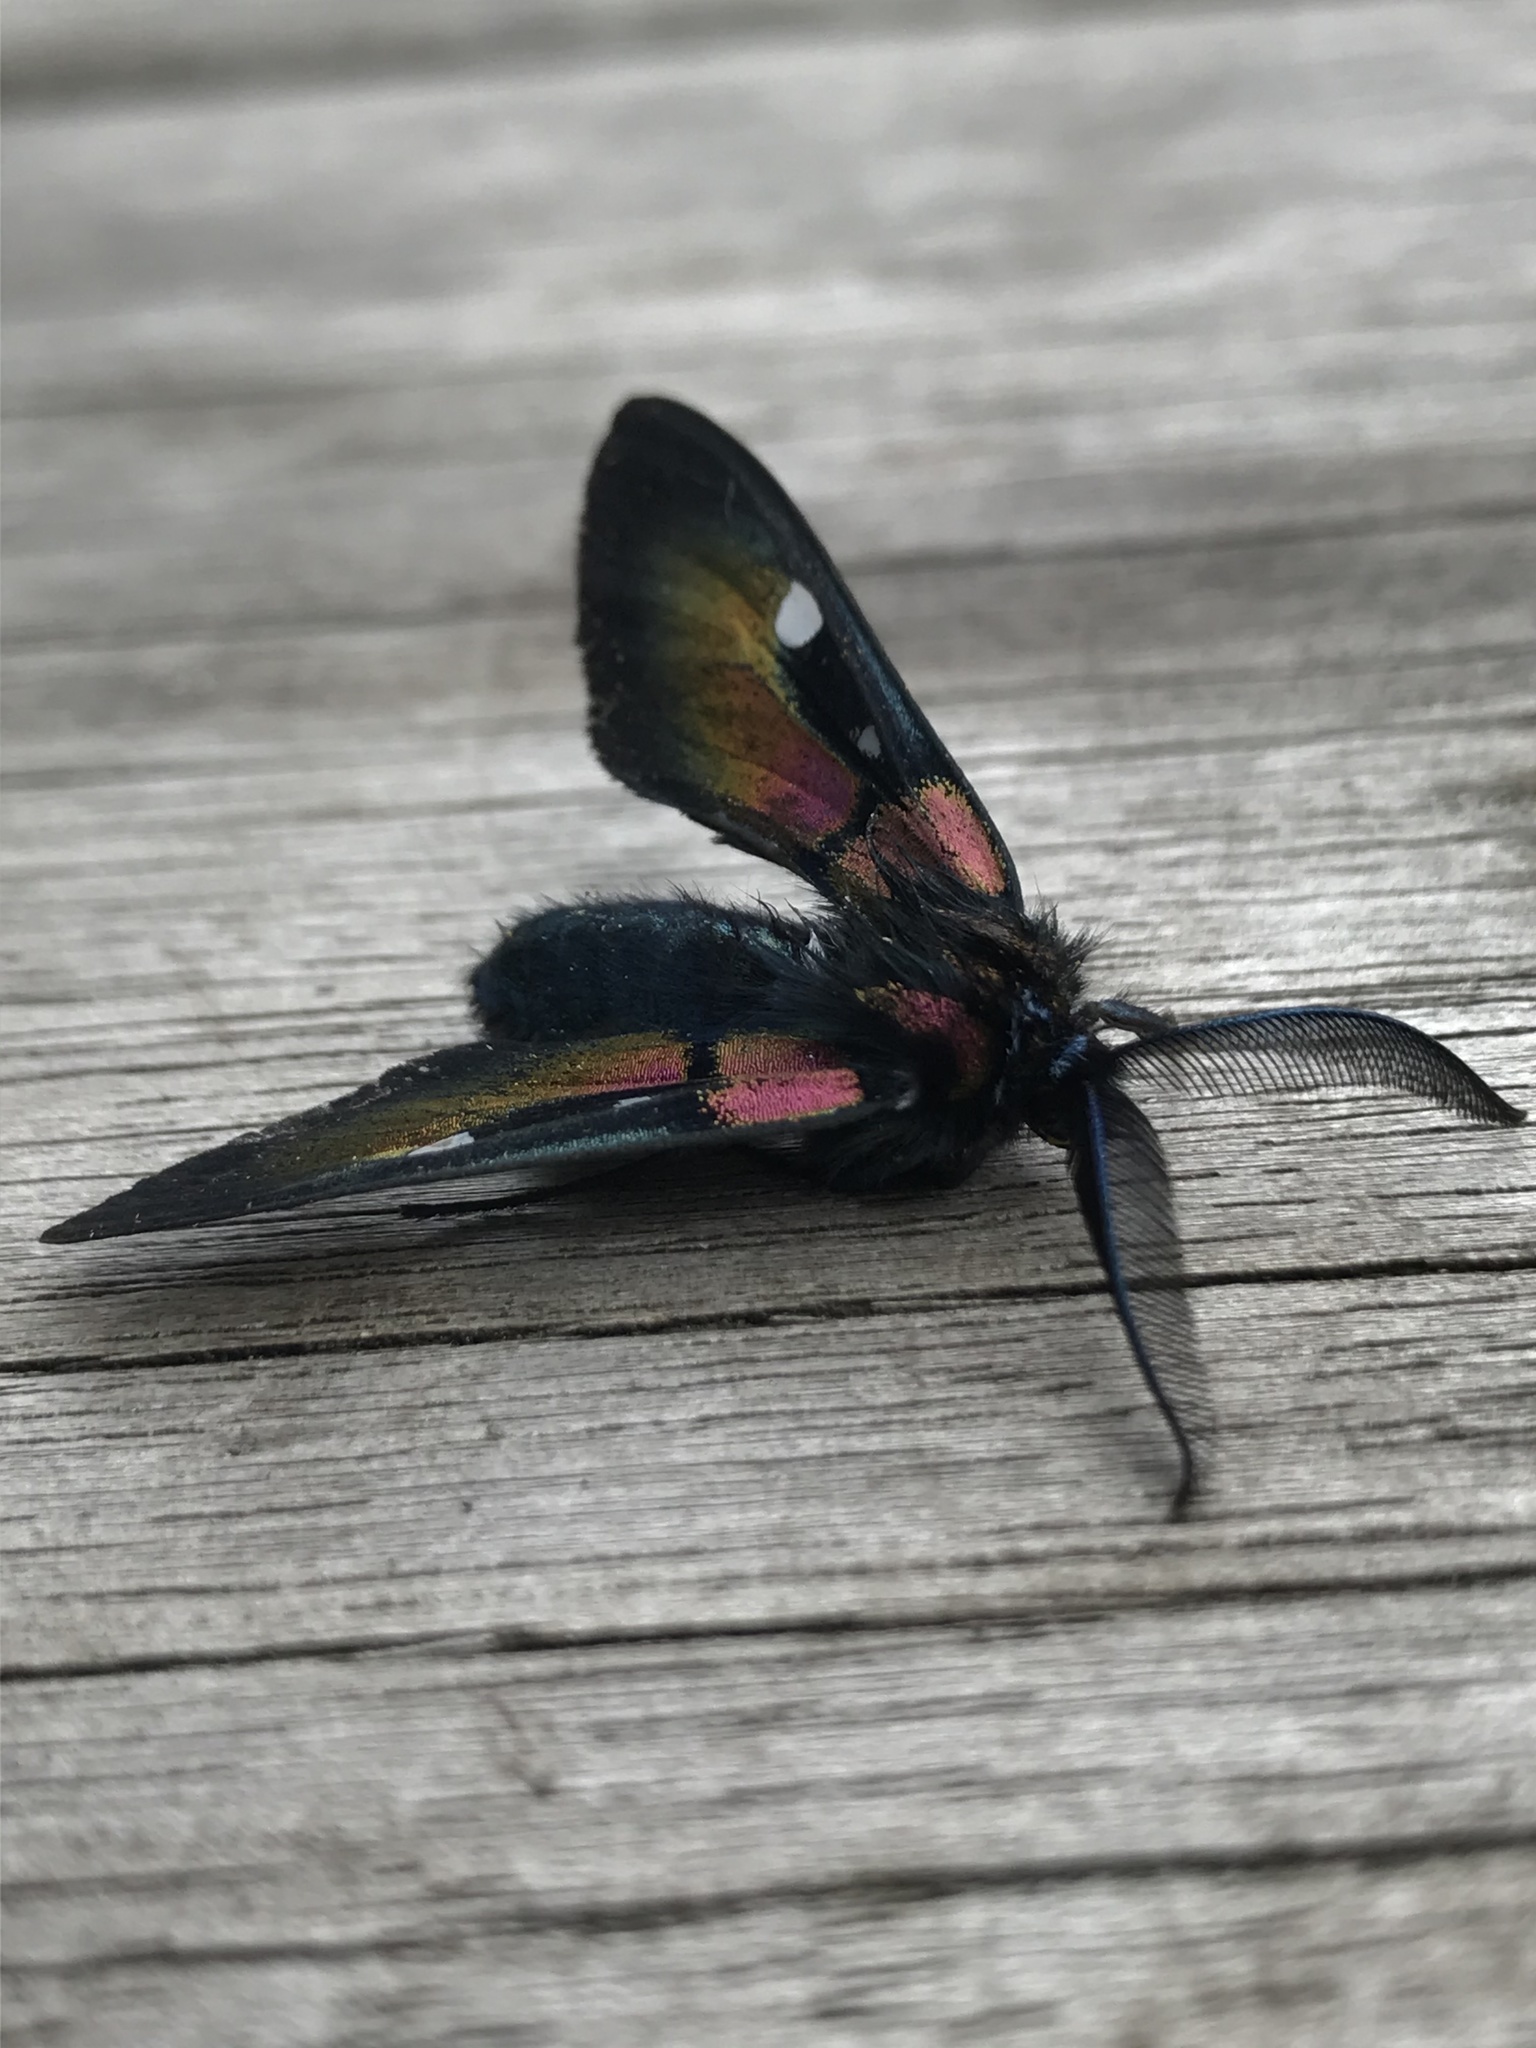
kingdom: Animalia
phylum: Arthropoda
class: Insecta
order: Lepidoptera
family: Erebidae
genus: Chrysocale
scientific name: Chrysocale ignita
